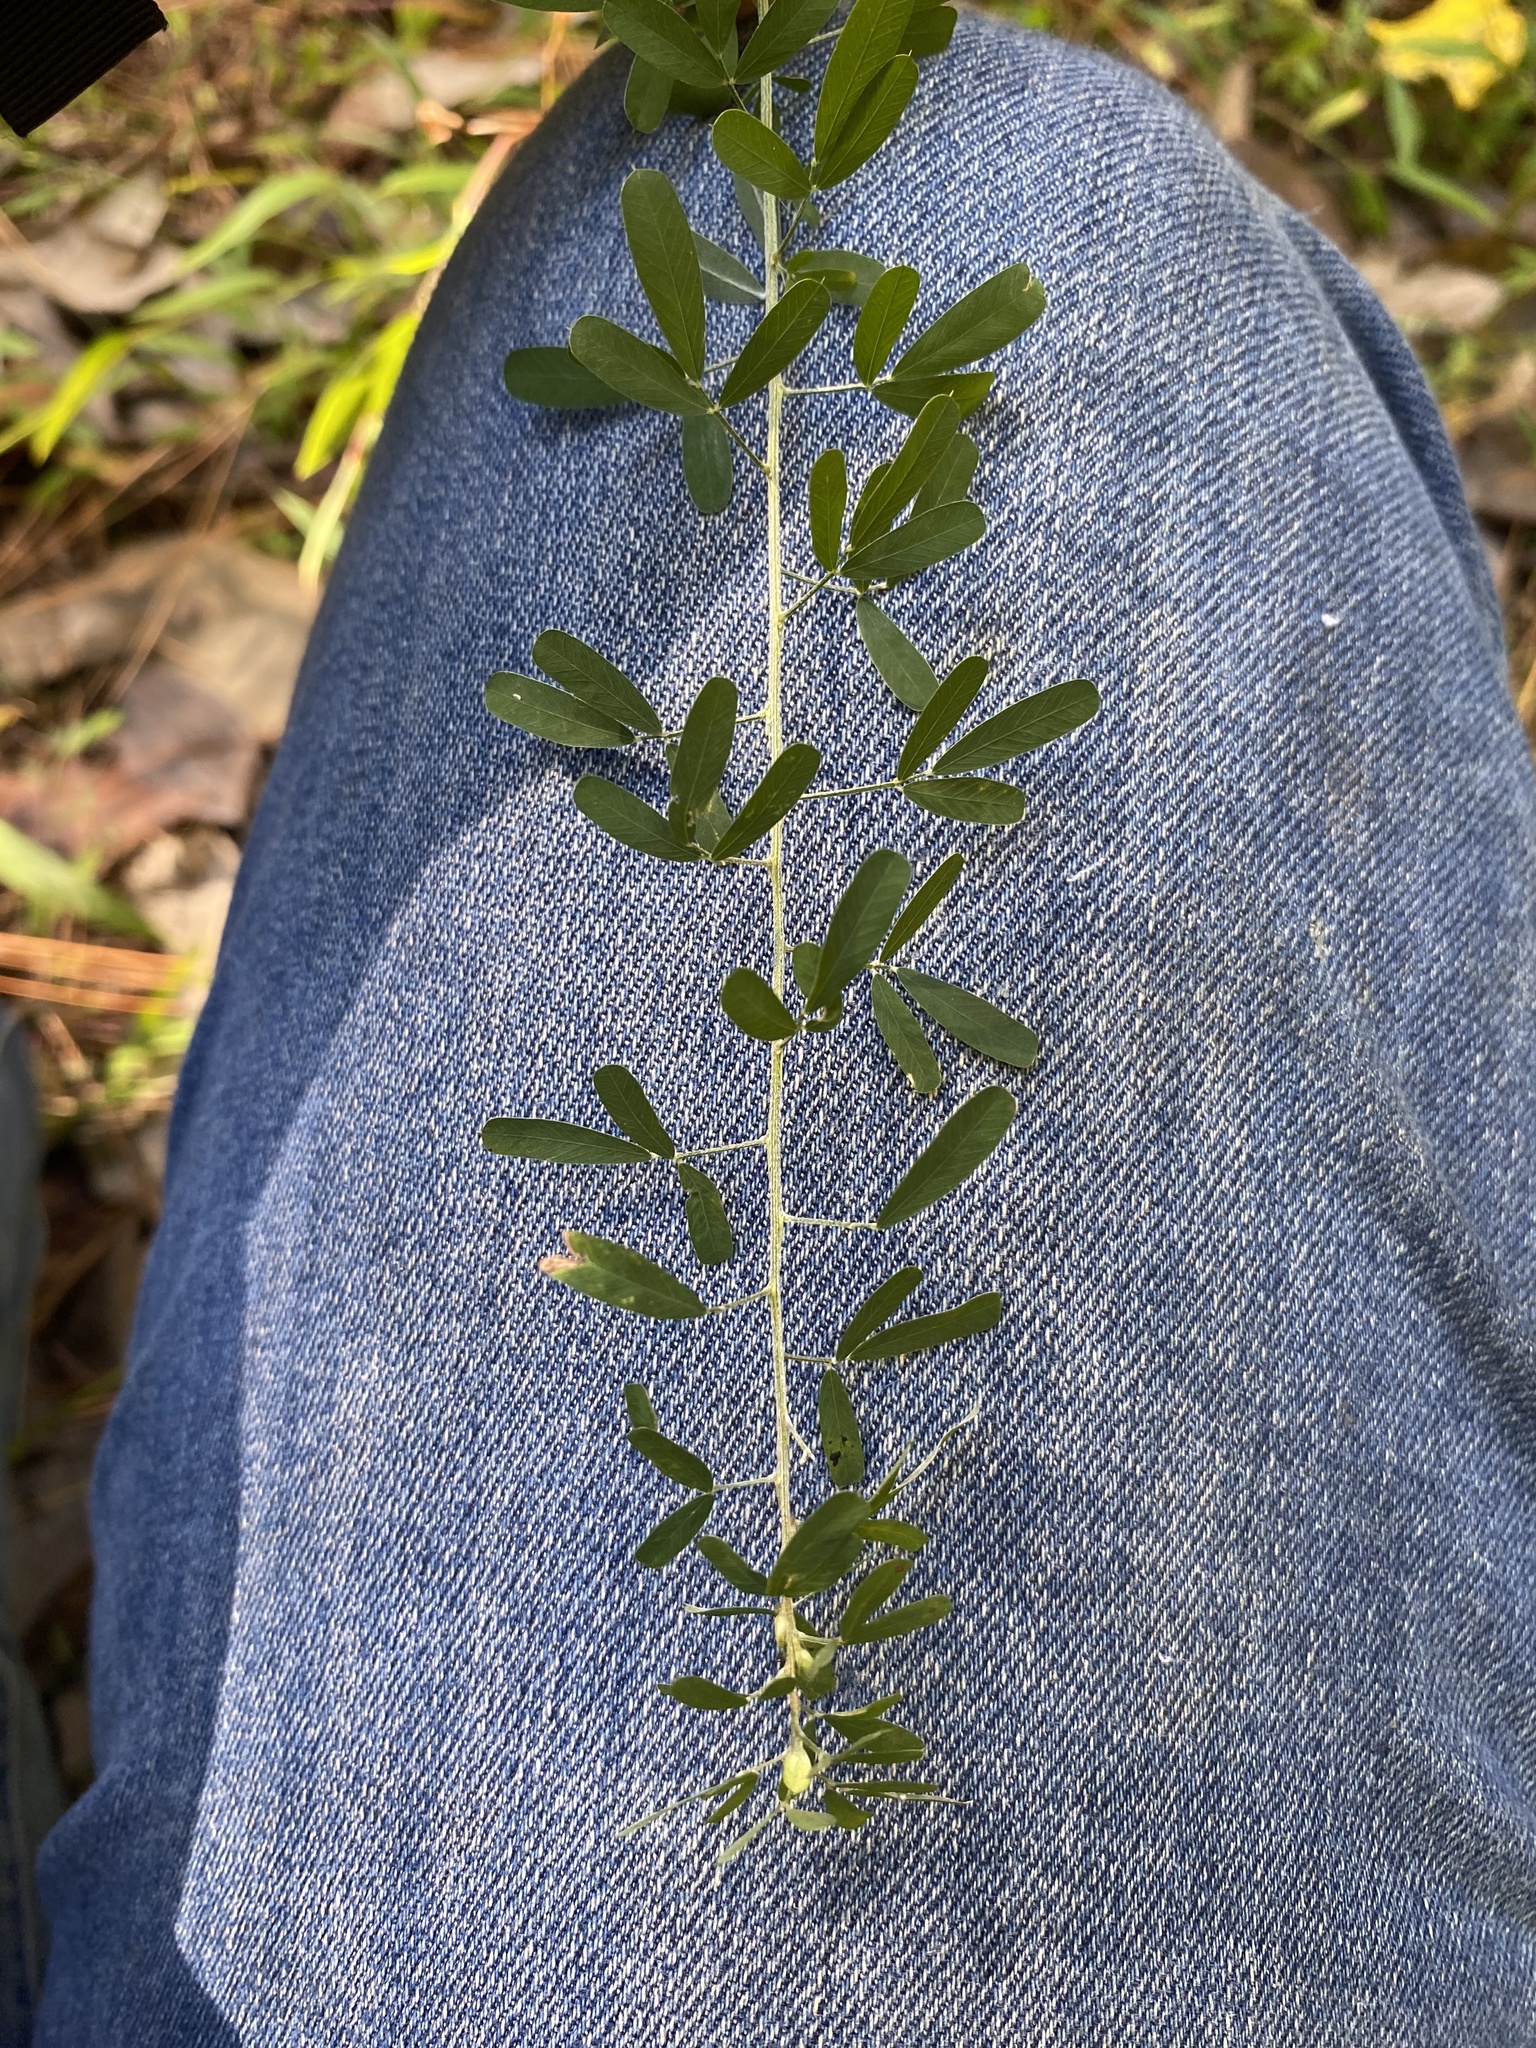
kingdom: Plantae
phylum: Tracheophyta
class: Magnoliopsida
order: Fabales
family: Fabaceae
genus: Lespedeza
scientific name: Lespedeza cuneata
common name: Chinese bush-clover
